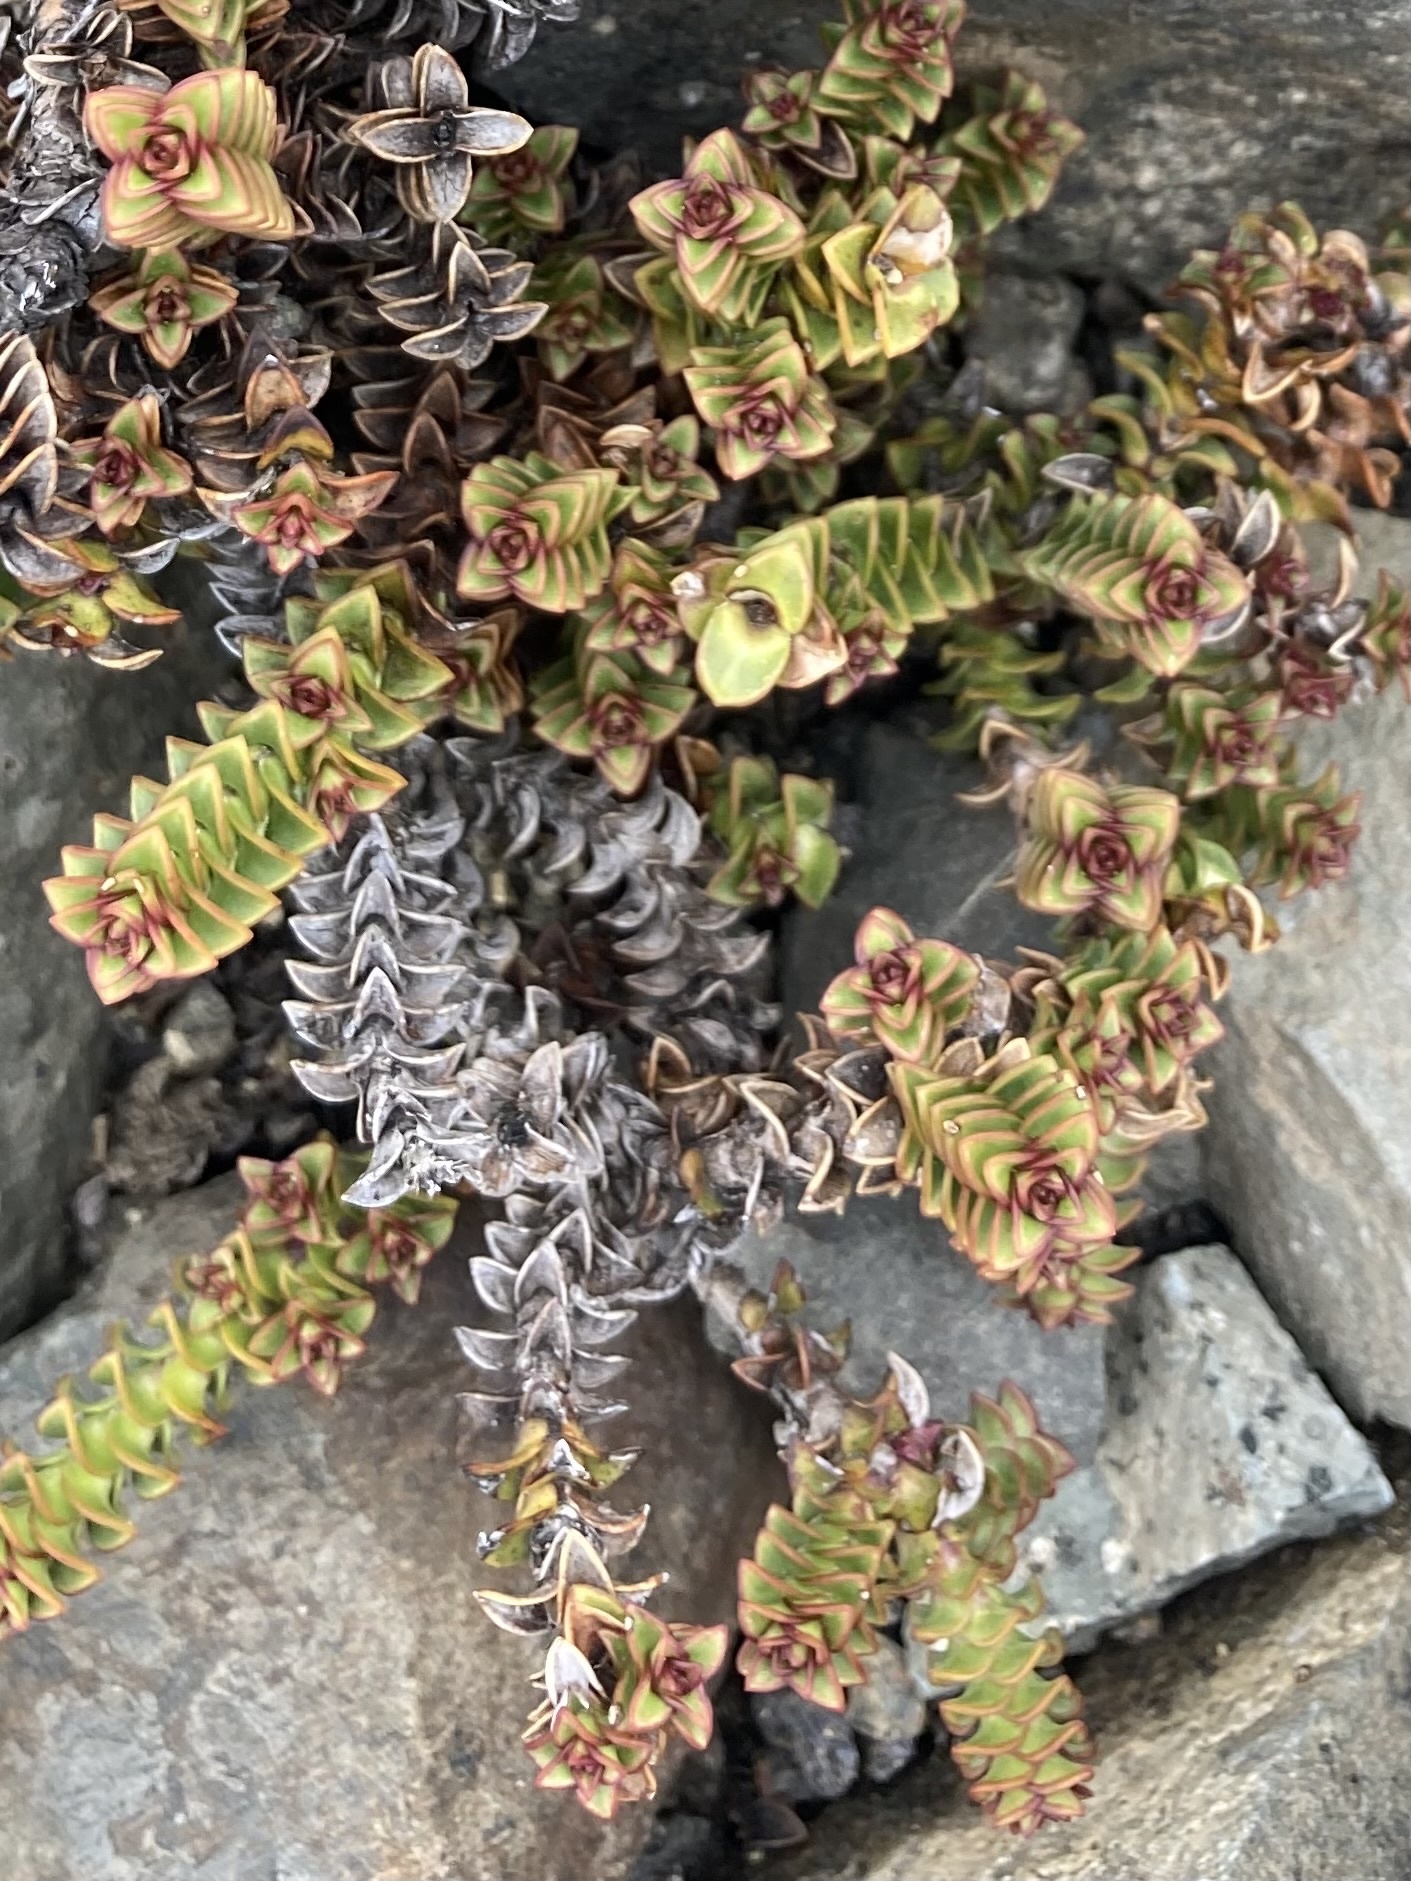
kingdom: Plantae
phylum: Tracheophyta
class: Magnoliopsida
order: Lamiales
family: Plantaginaceae
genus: Veronica
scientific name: Veronica epacridea
